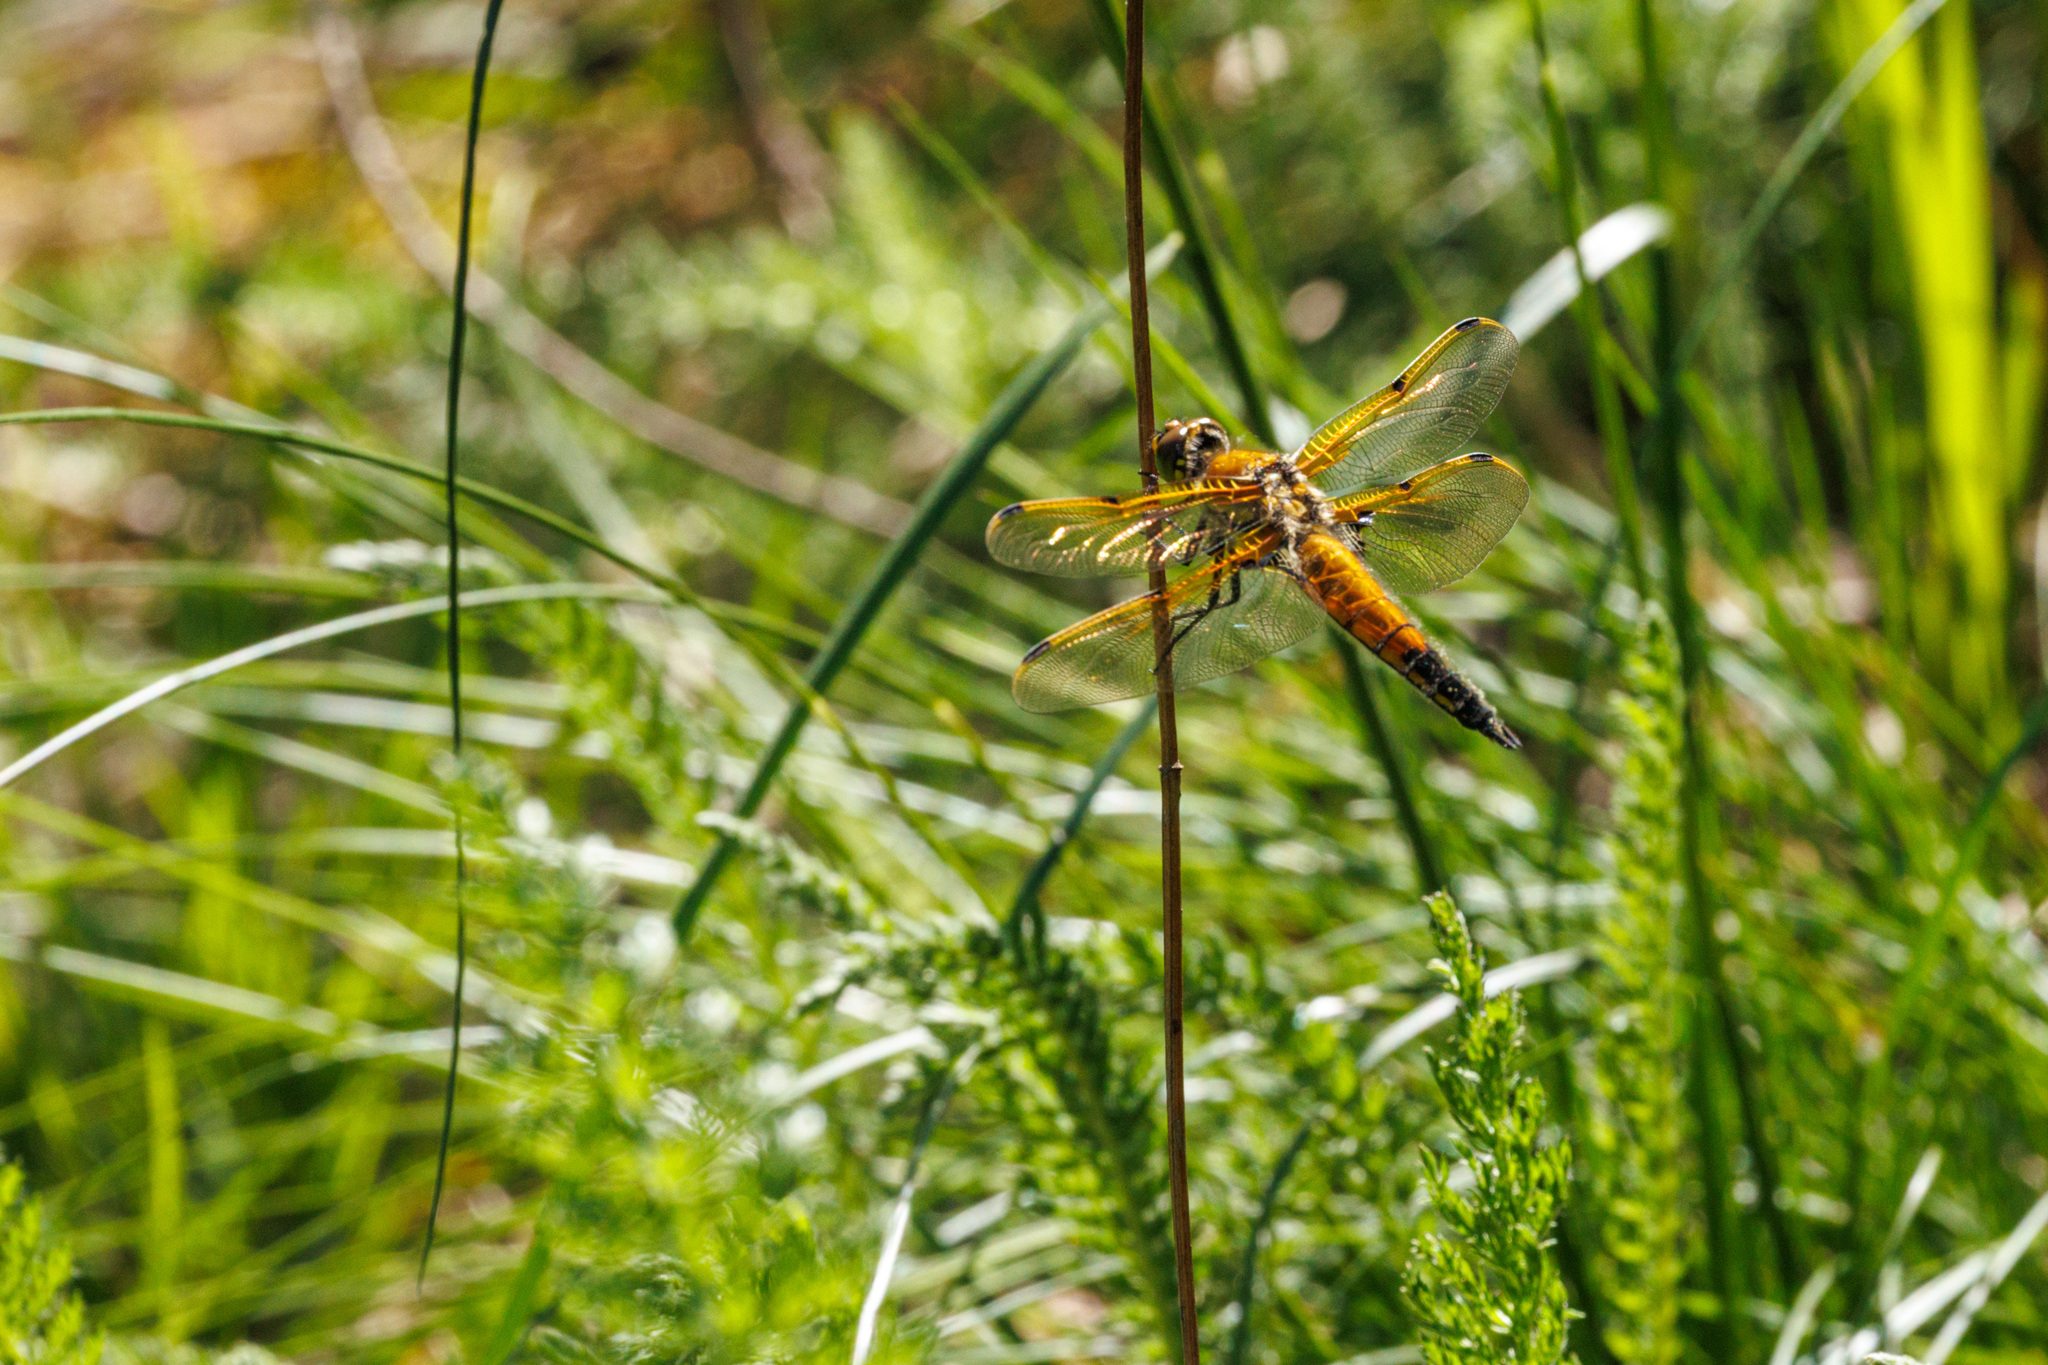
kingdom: Animalia
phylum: Arthropoda
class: Insecta
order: Odonata
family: Libellulidae
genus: Libellula
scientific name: Libellula quadrimaculata
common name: Four-spotted chaser
